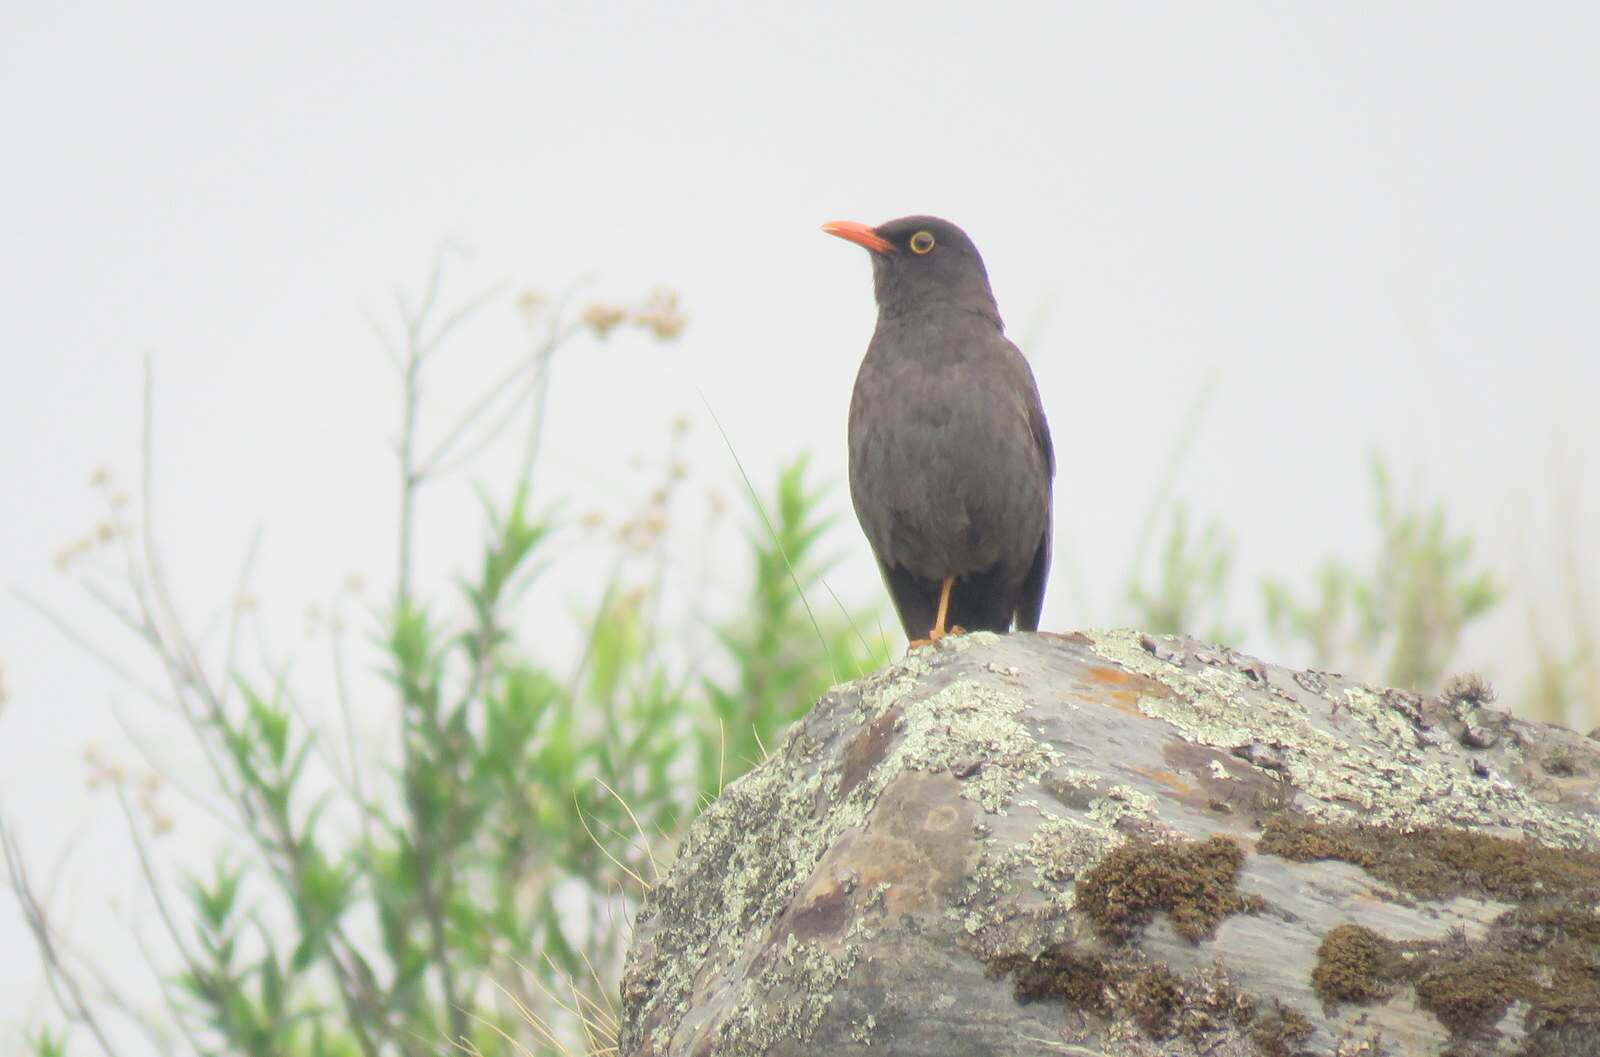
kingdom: Animalia
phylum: Chordata
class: Aves
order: Passeriformes
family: Turdidae
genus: Turdus
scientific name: Turdus chiguanco
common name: Chiguanco thrush
